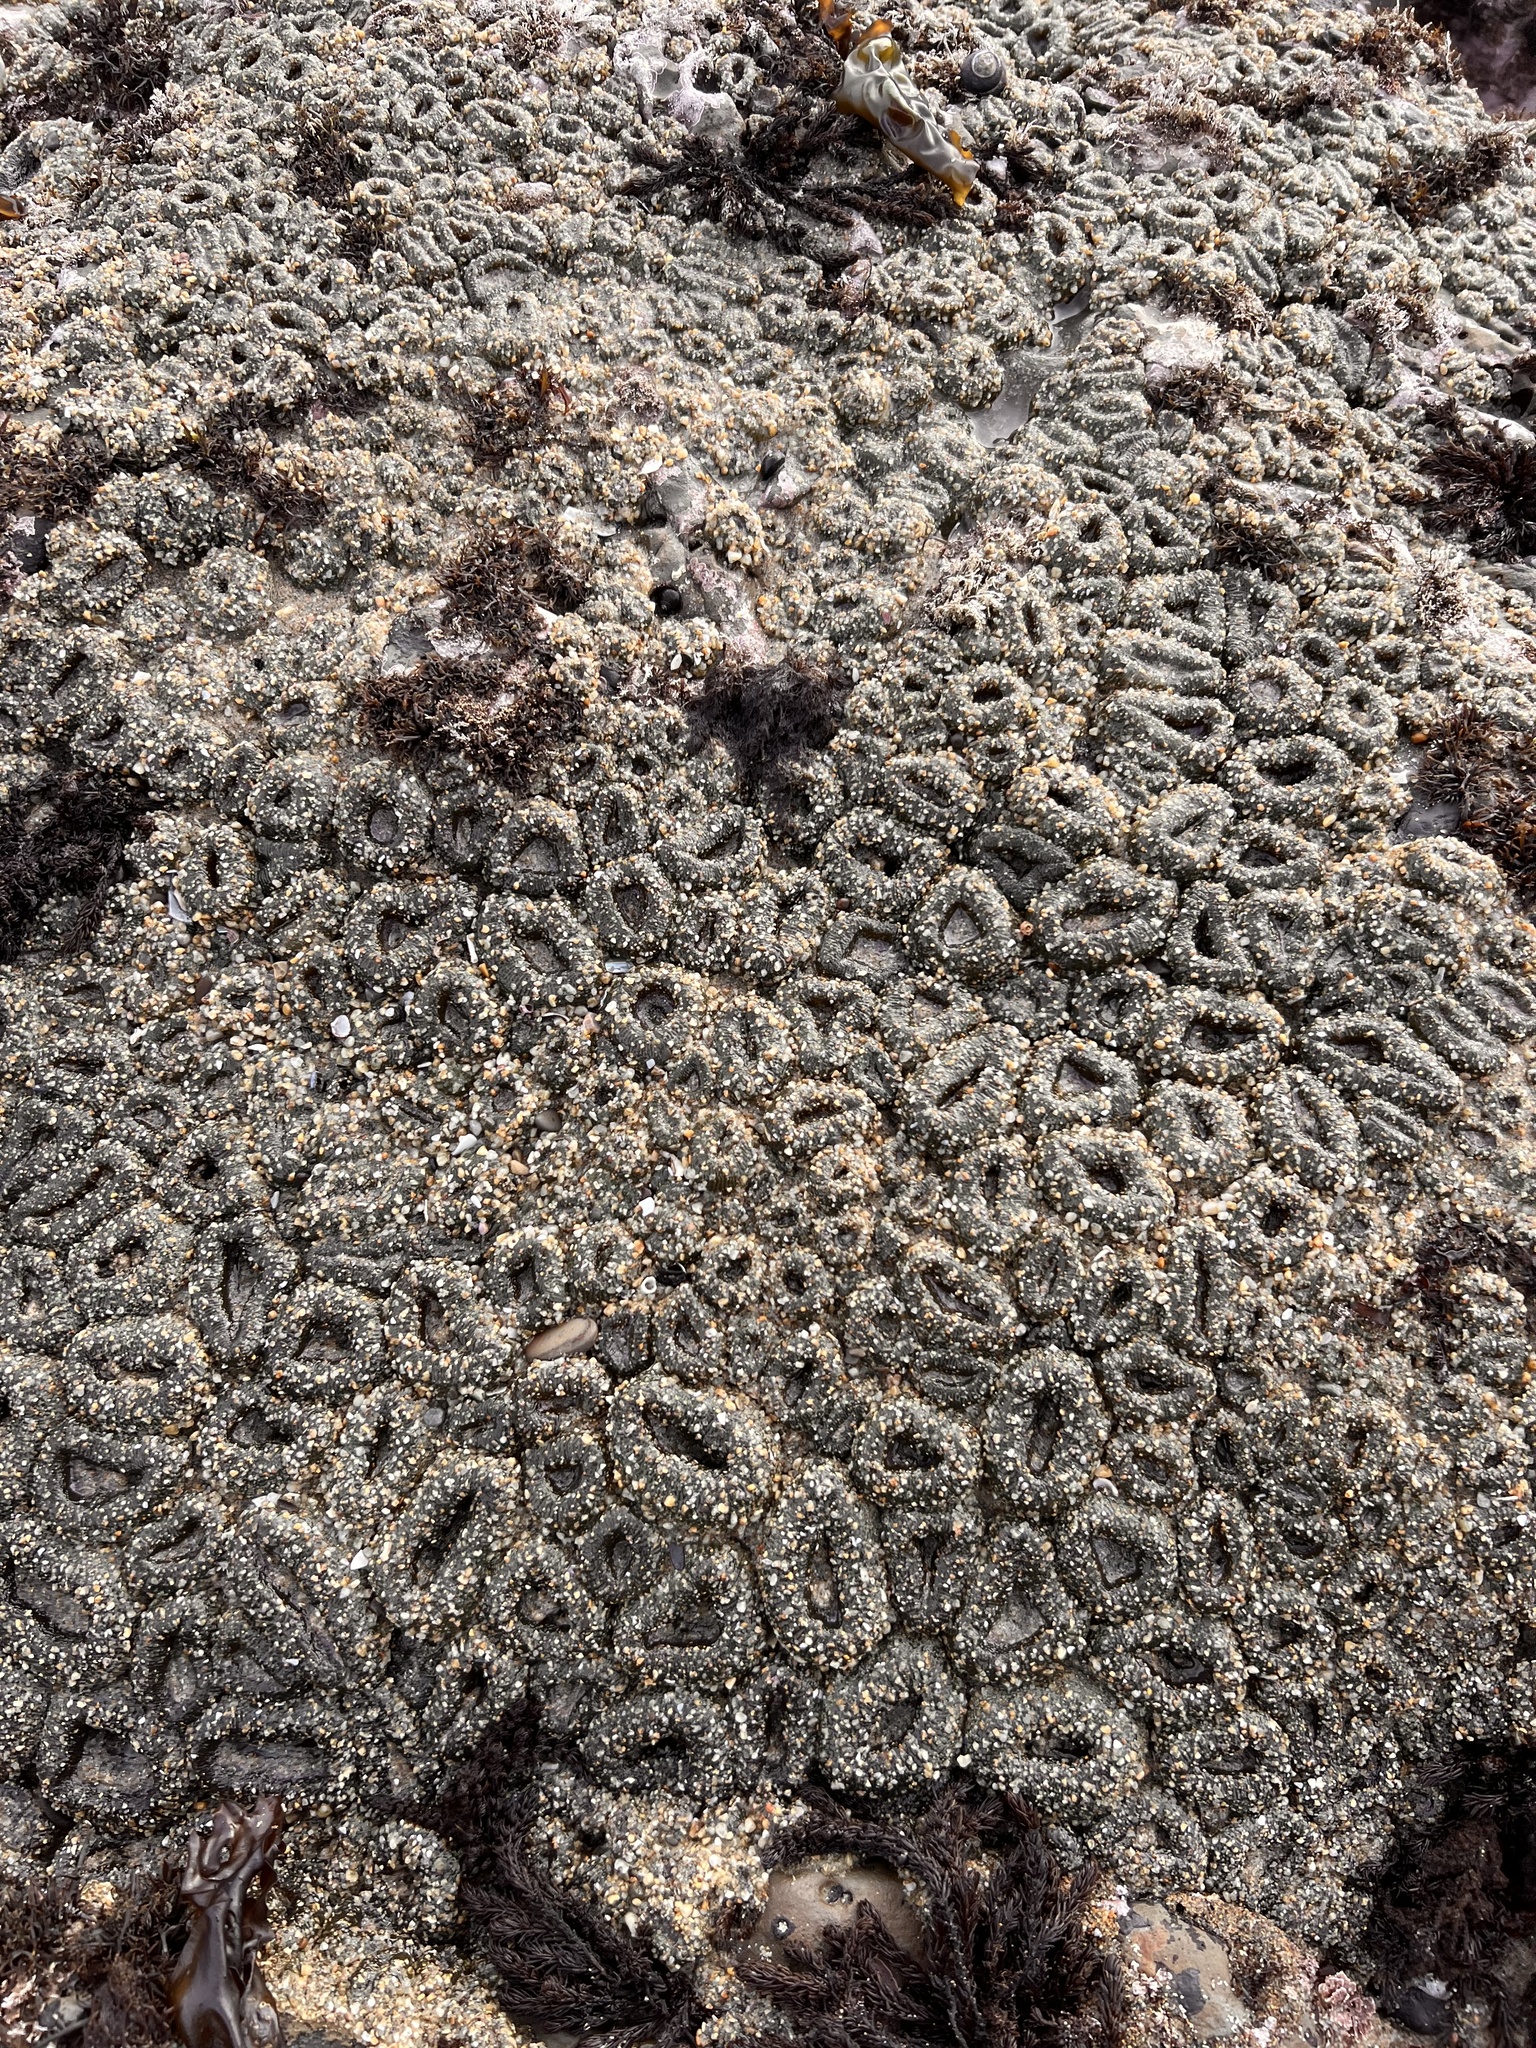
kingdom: Animalia
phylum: Cnidaria
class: Anthozoa
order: Actiniaria
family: Actiniidae
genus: Anthopleura
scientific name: Anthopleura elegantissima
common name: Clonal anemone
